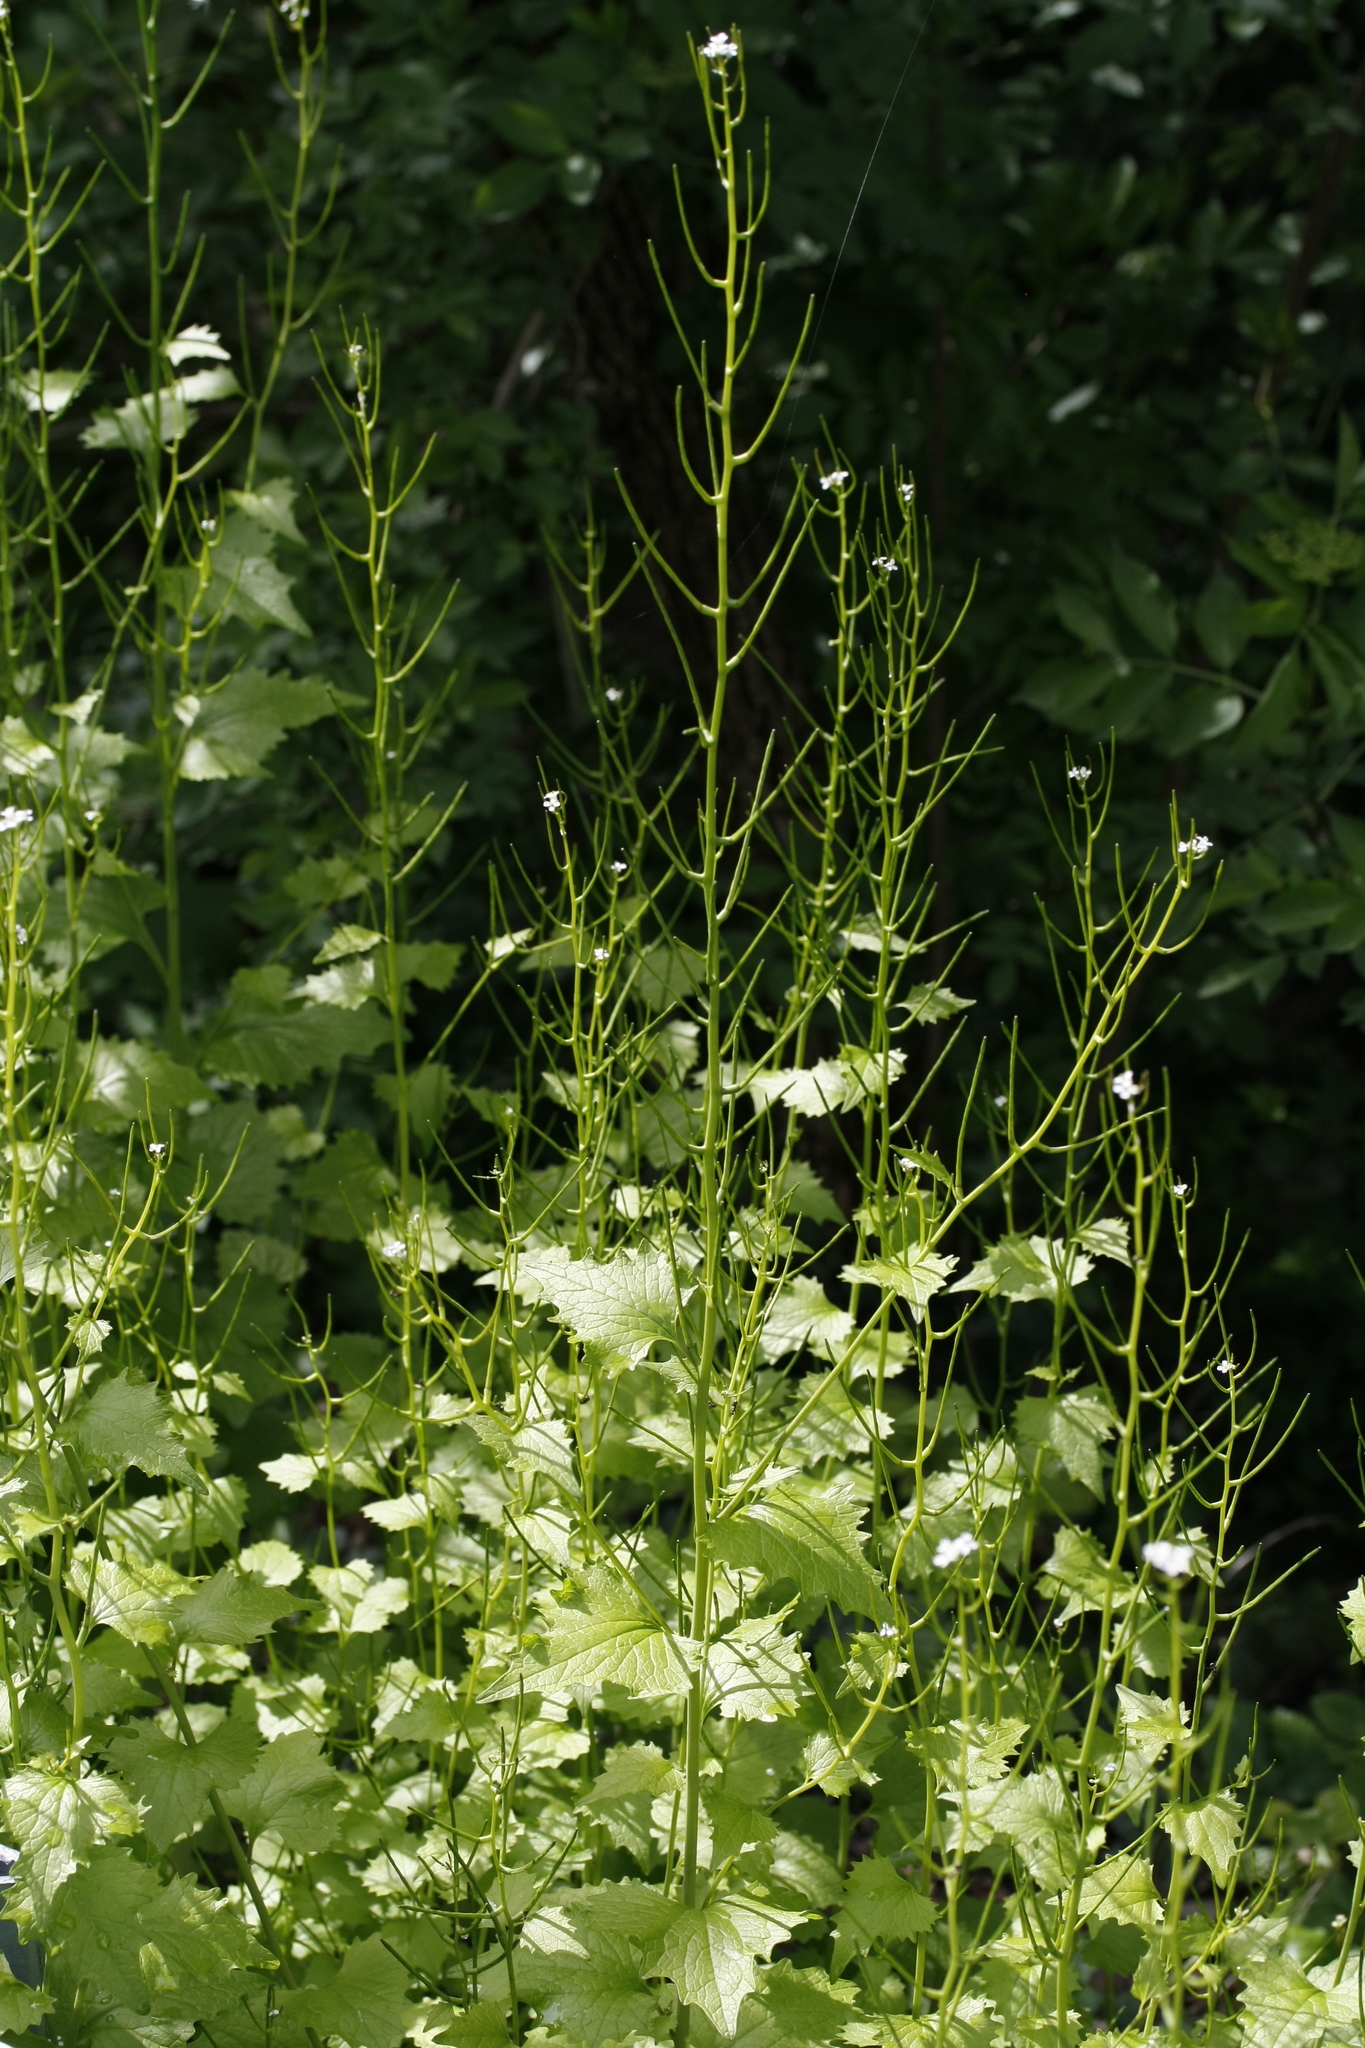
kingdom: Plantae
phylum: Tracheophyta
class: Magnoliopsida
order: Brassicales
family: Brassicaceae
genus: Alliaria
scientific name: Alliaria petiolata
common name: Garlic mustard
